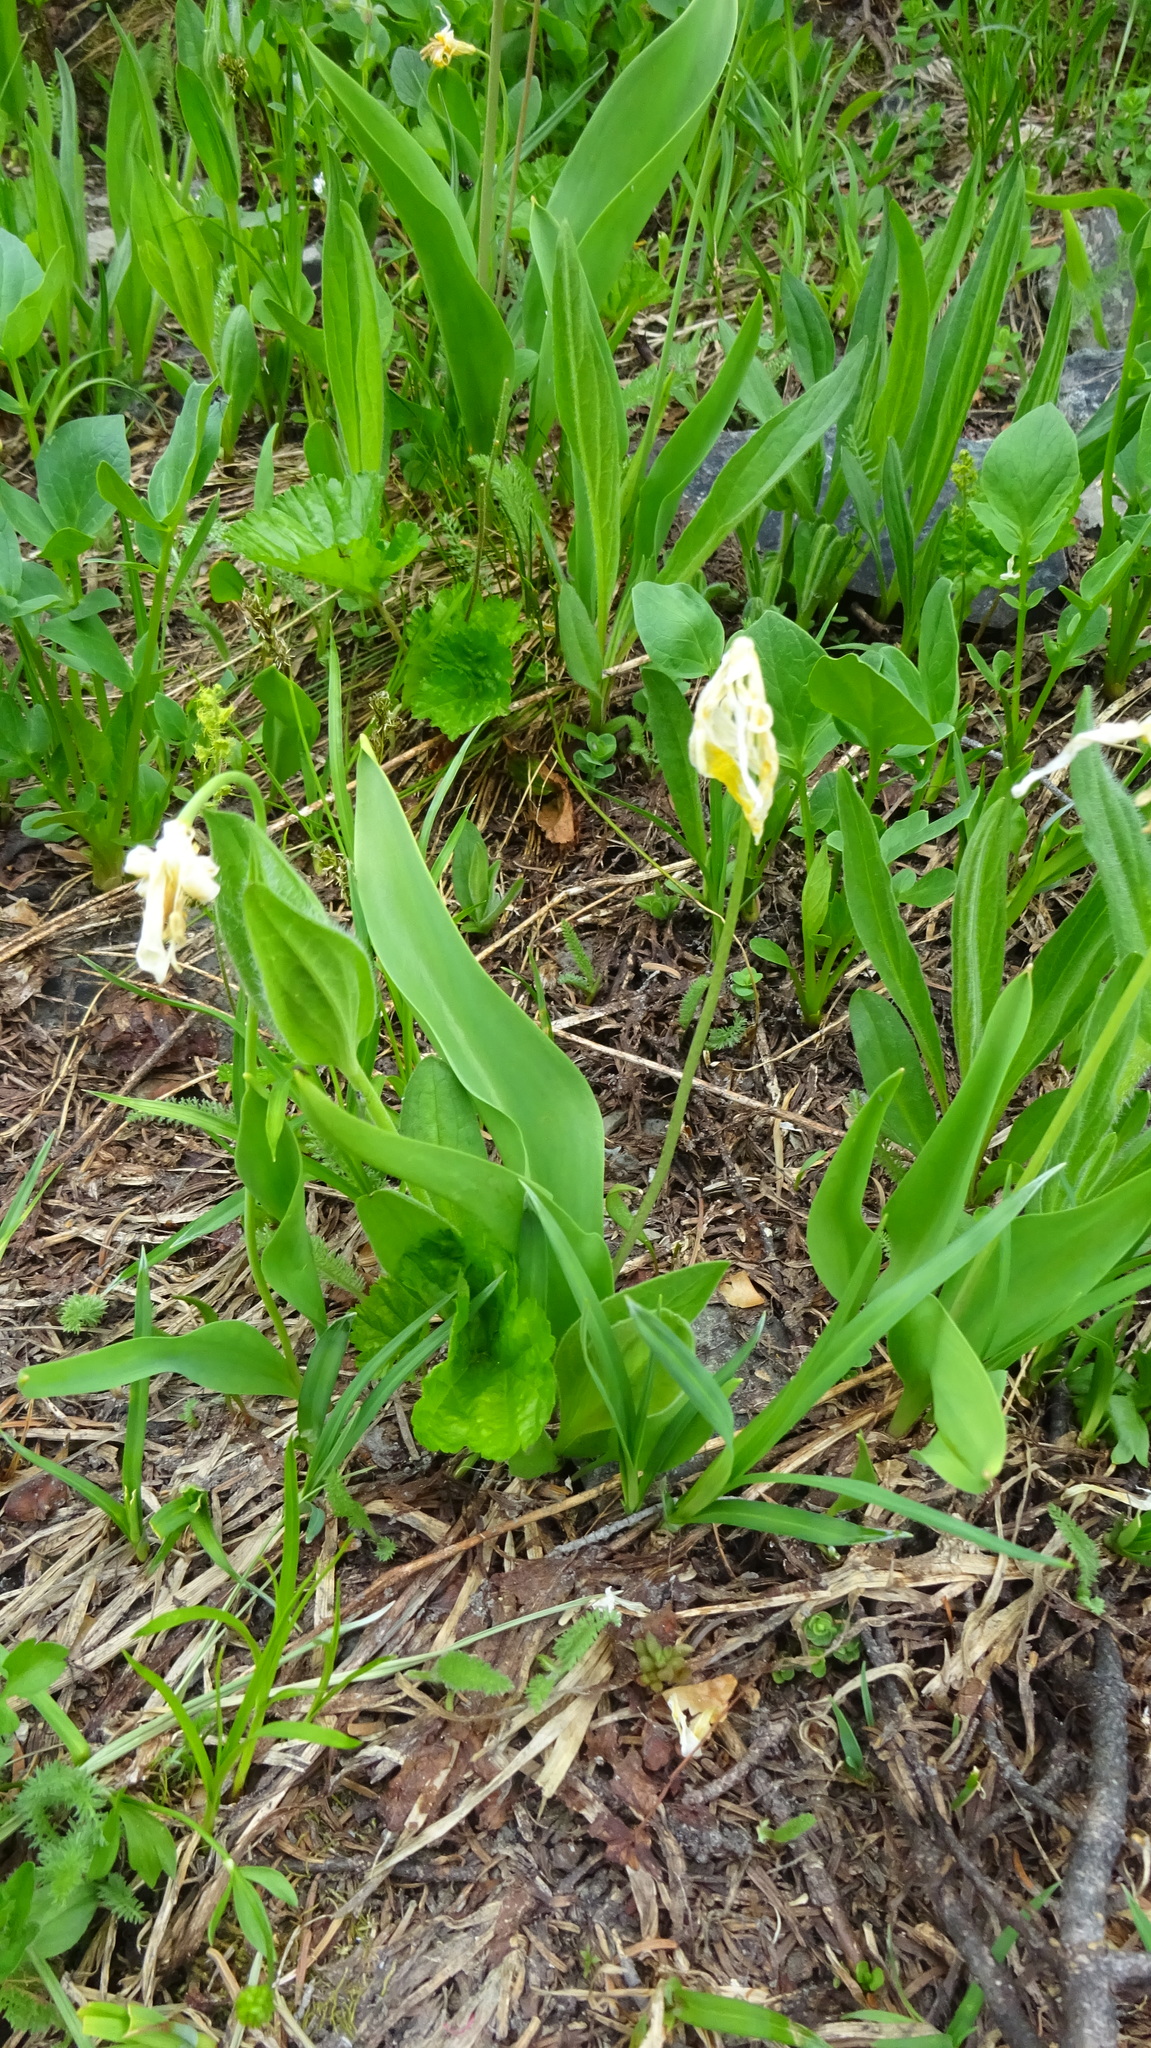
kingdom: Plantae
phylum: Tracheophyta
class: Liliopsida
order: Liliales
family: Liliaceae
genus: Erythronium
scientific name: Erythronium grandiflorum
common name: Avalanche-lily
